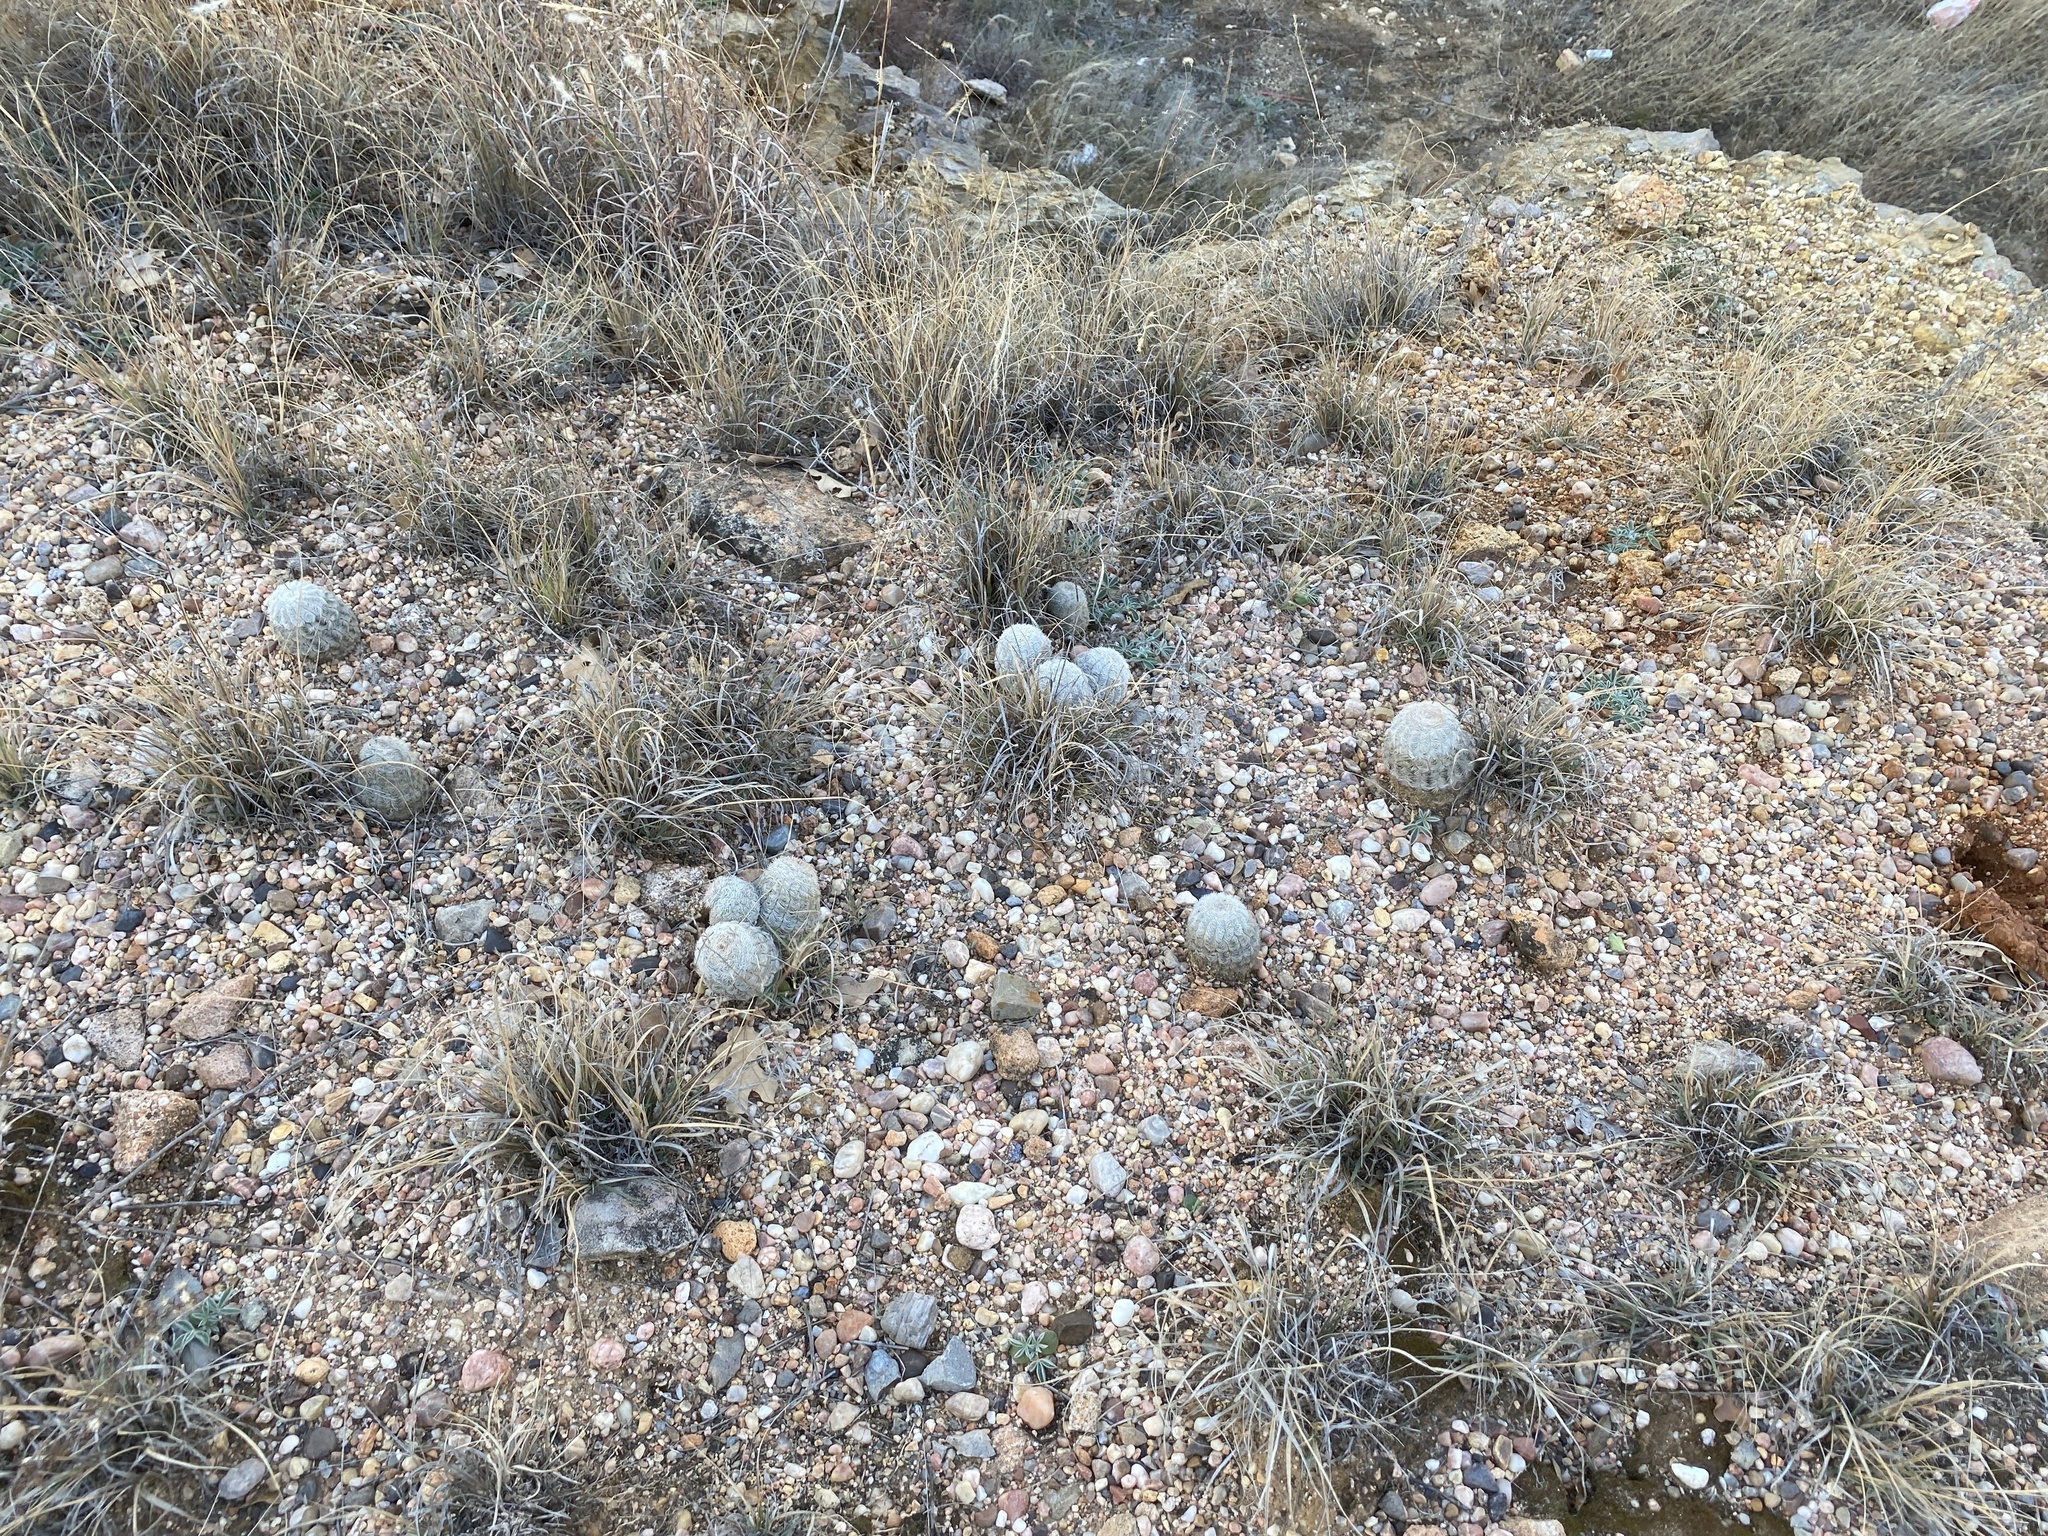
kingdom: Plantae
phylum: Tracheophyta
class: Magnoliopsida
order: Caryophyllales
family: Cactaceae
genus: Echinocereus
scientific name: Echinocereus reichenbachii
